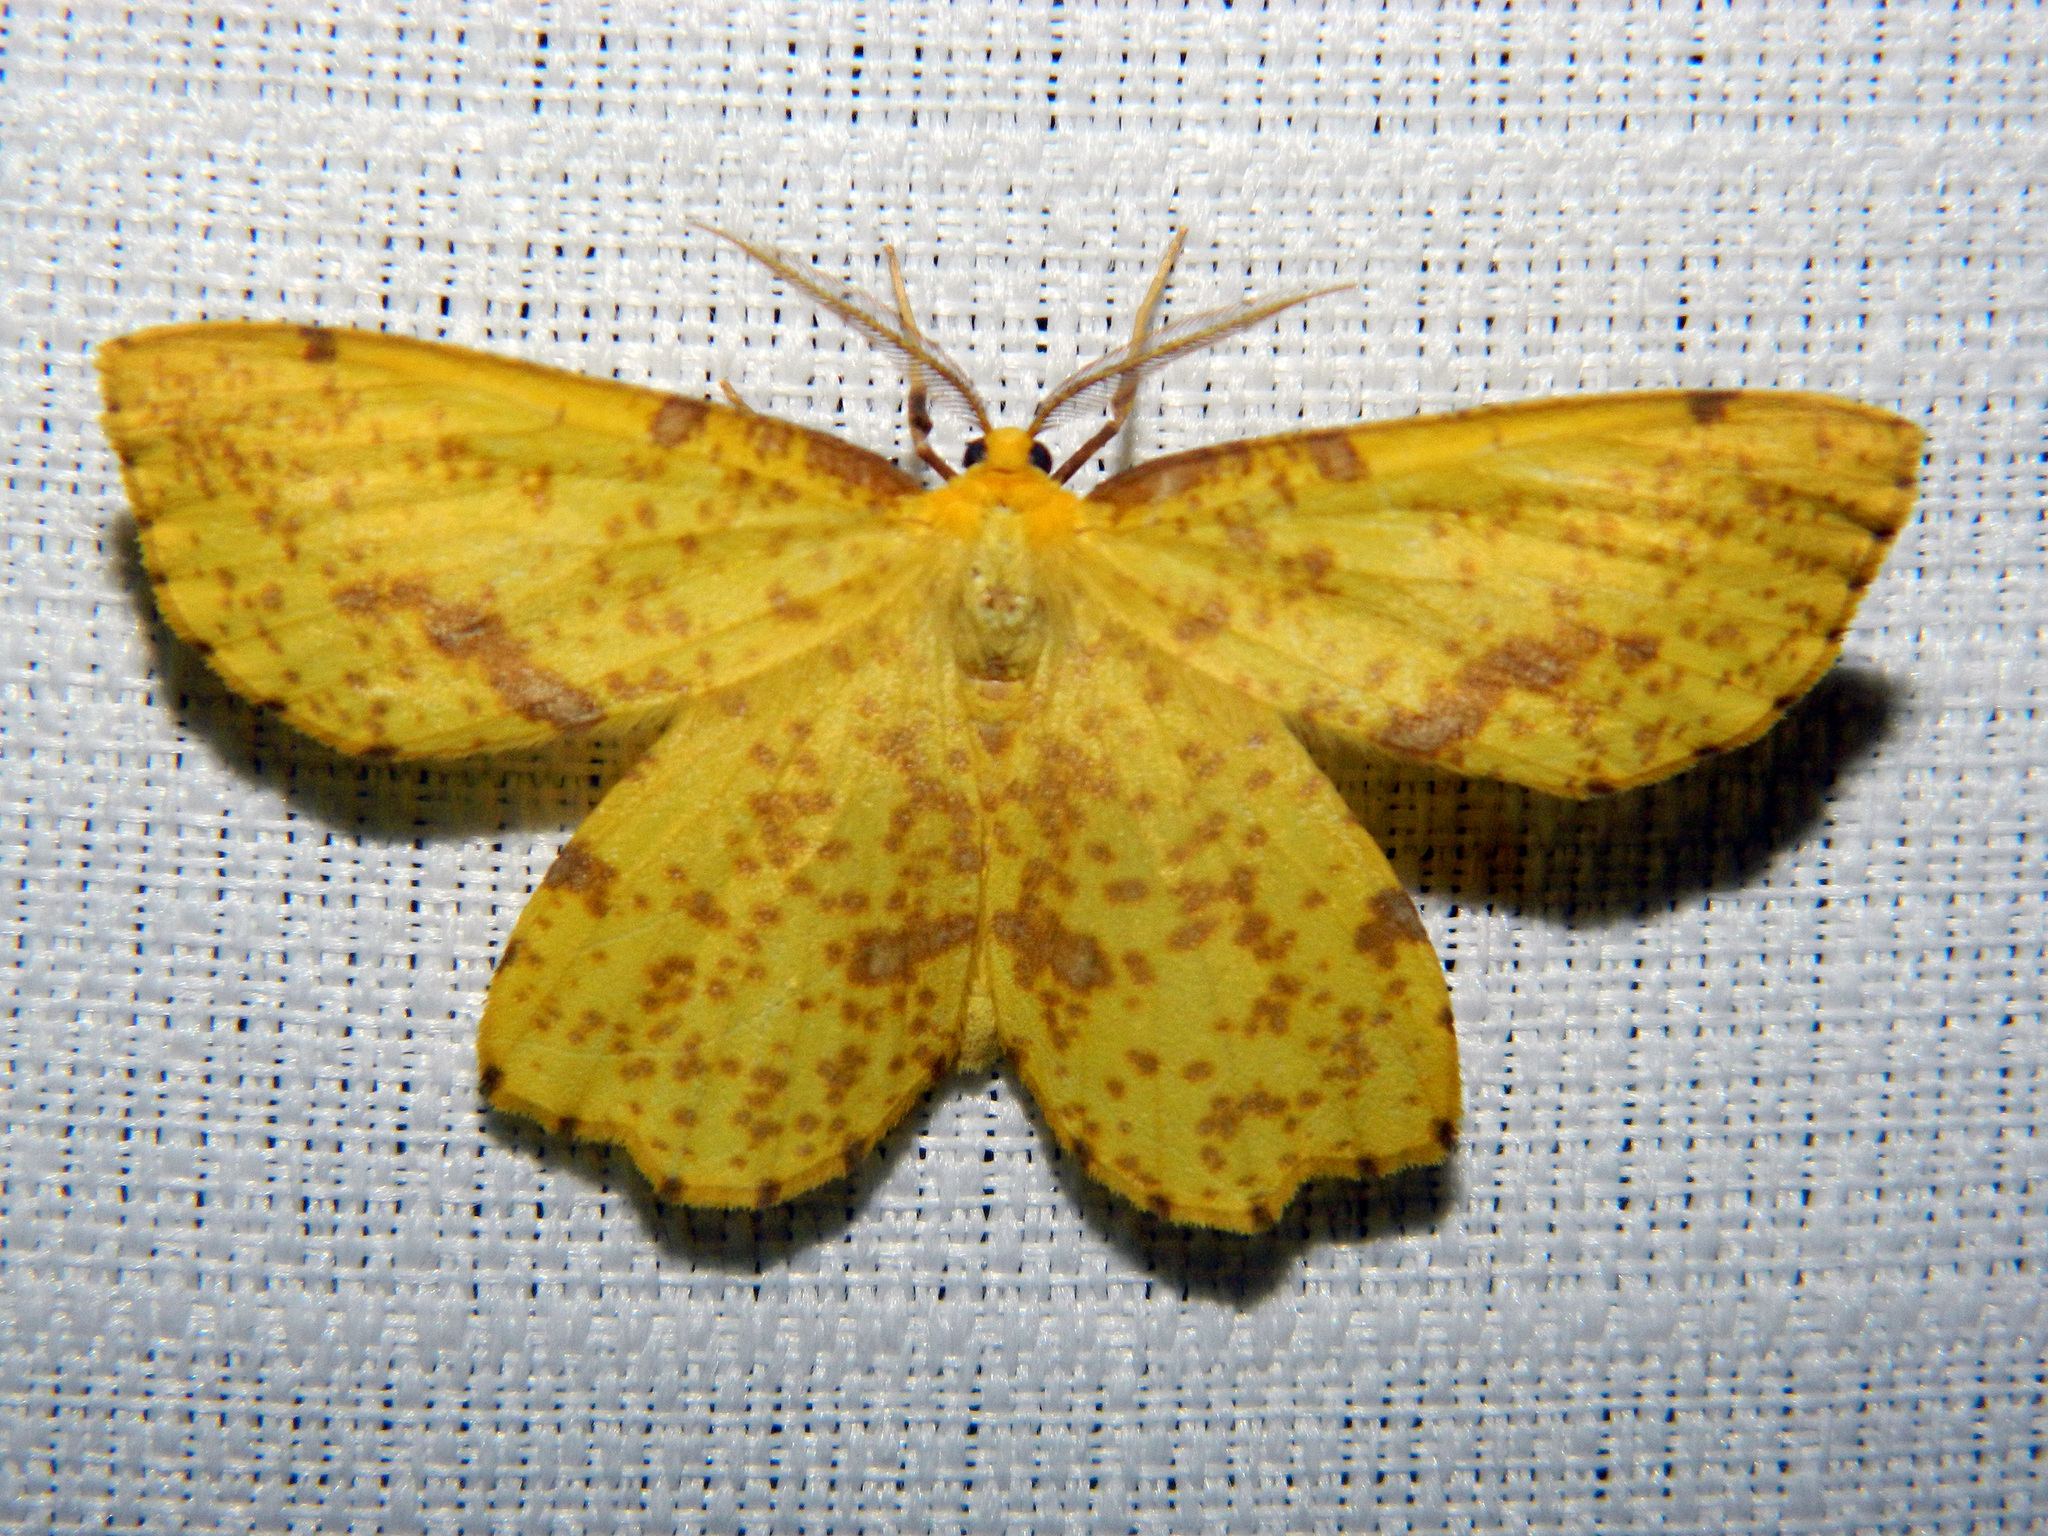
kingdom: Animalia
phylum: Arthropoda
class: Insecta
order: Lepidoptera
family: Geometridae
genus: Xanthotype
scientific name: Xanthotype
